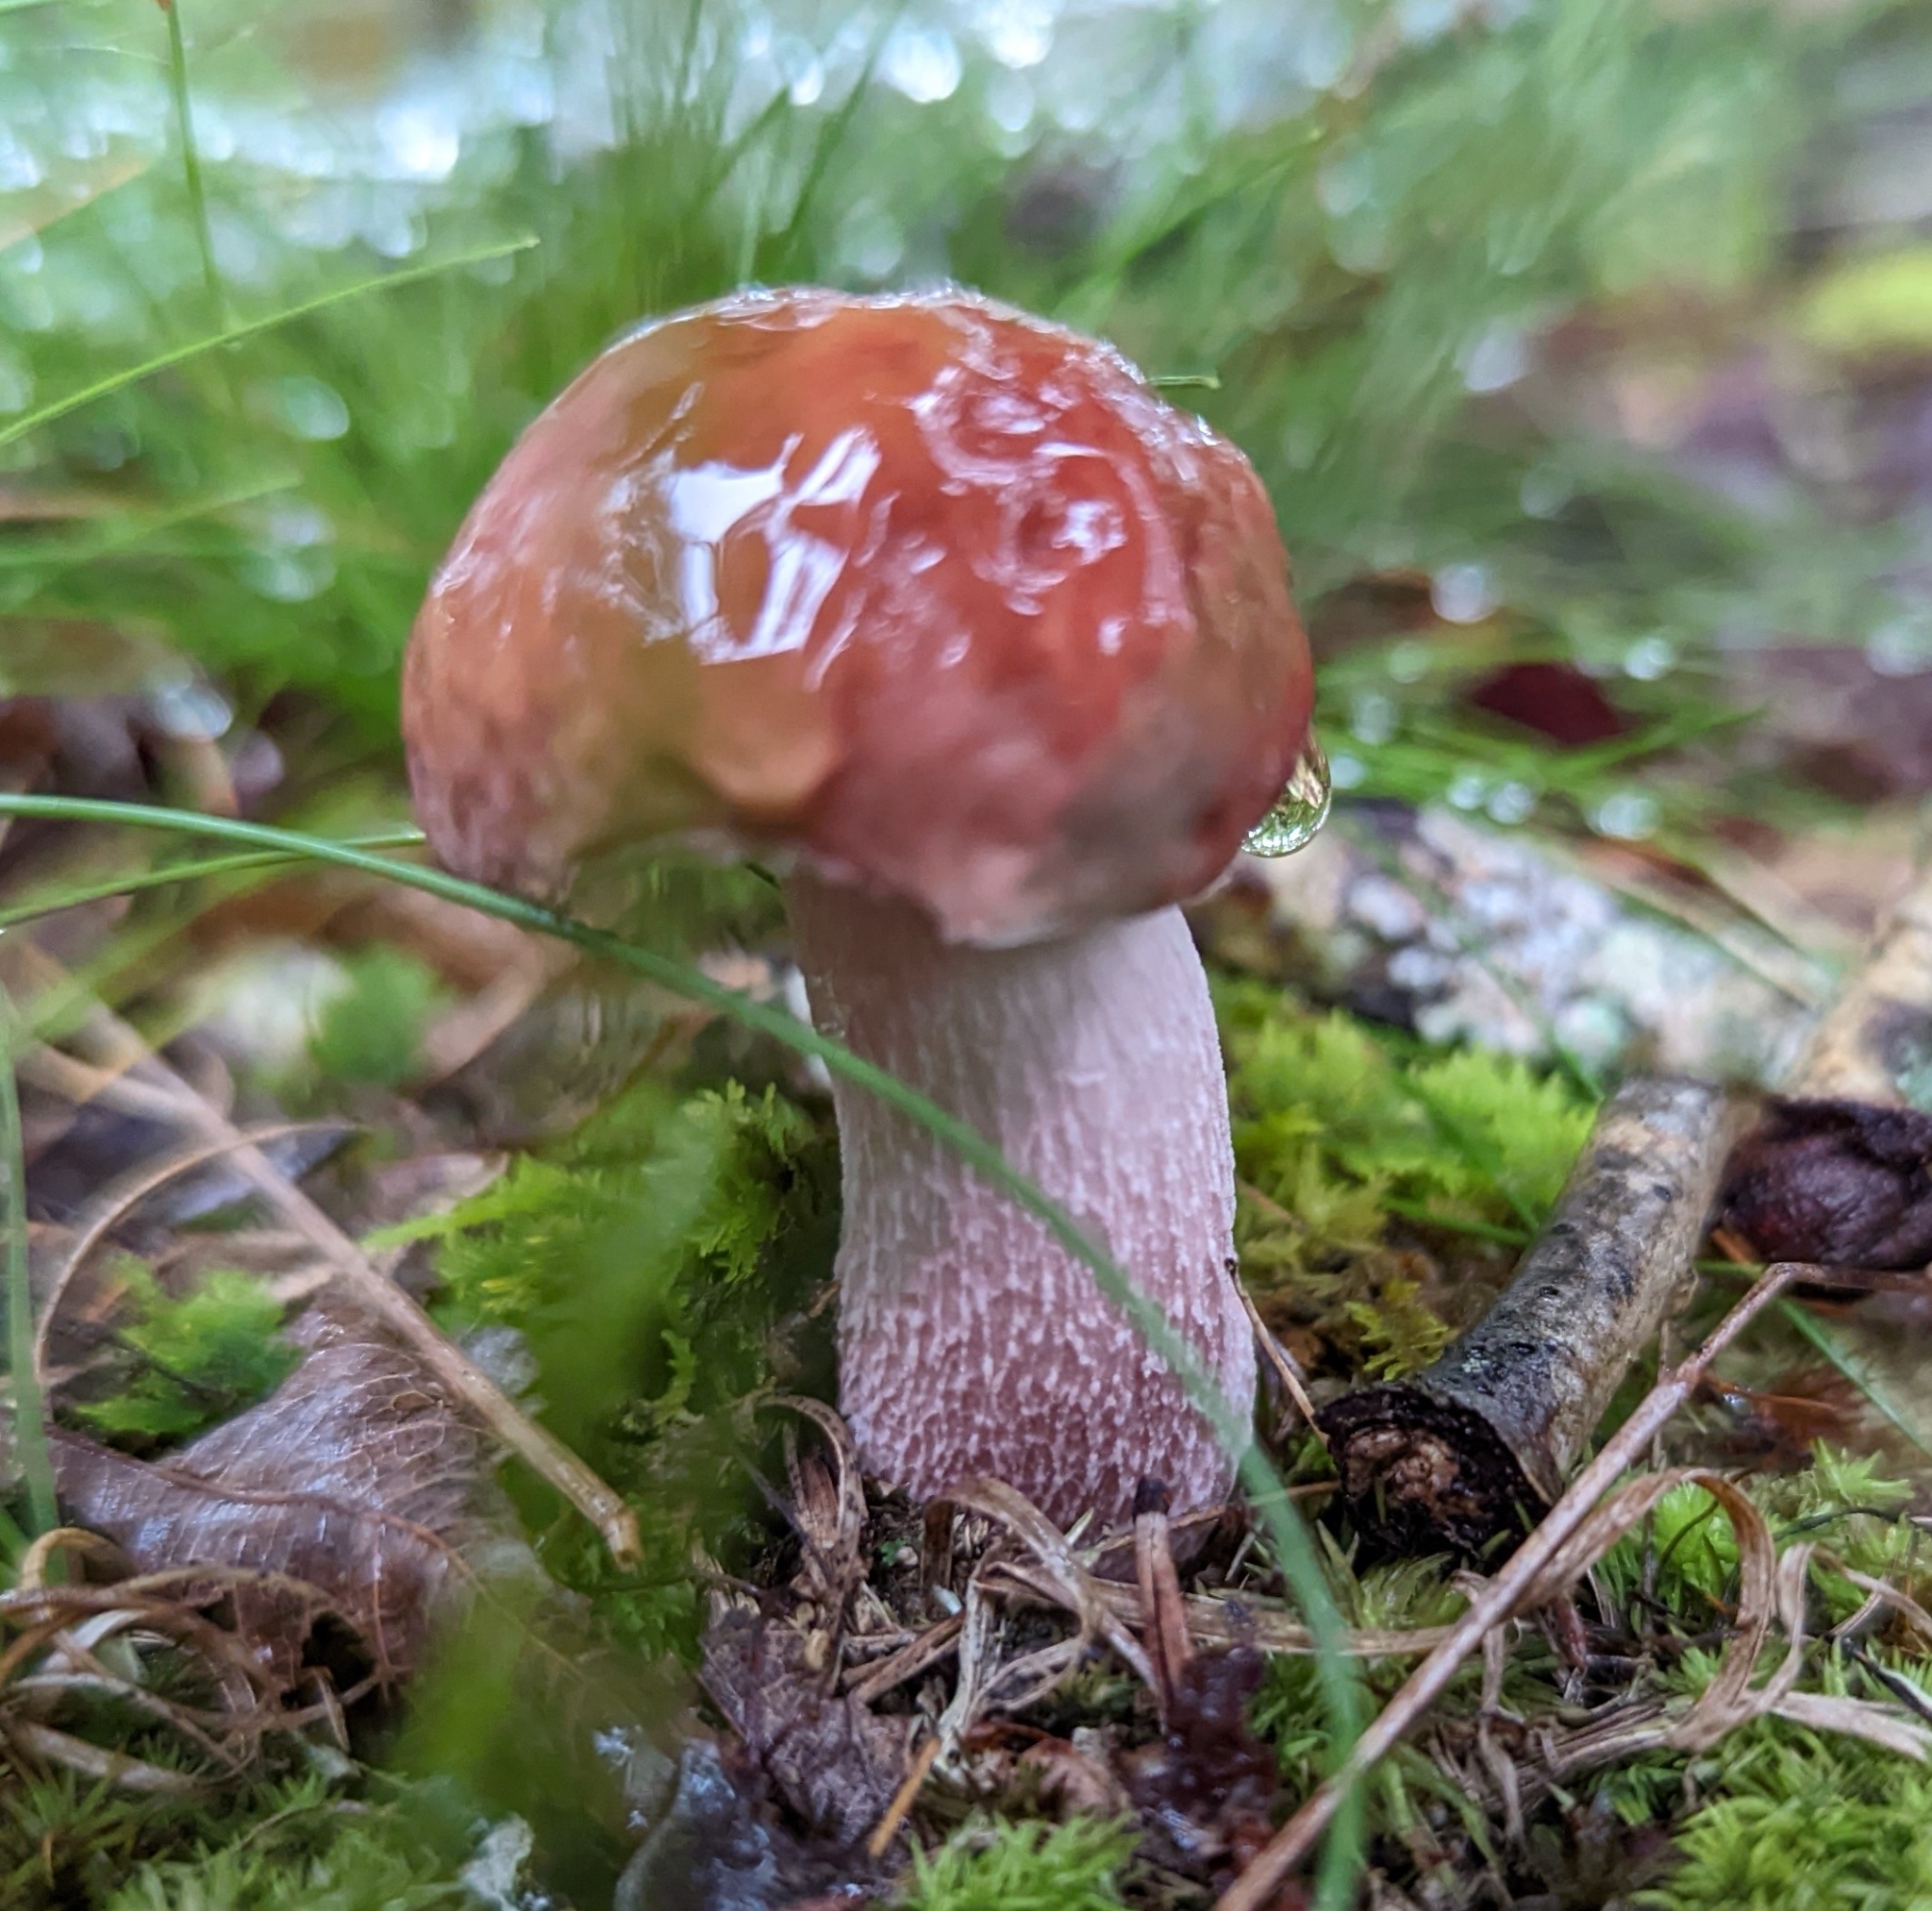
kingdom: Fungi
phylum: Basidiomycota
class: Agaricomycetes
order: Boletales
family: Boletaceae
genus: Xanthoconium
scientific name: Xanthoconium separans
